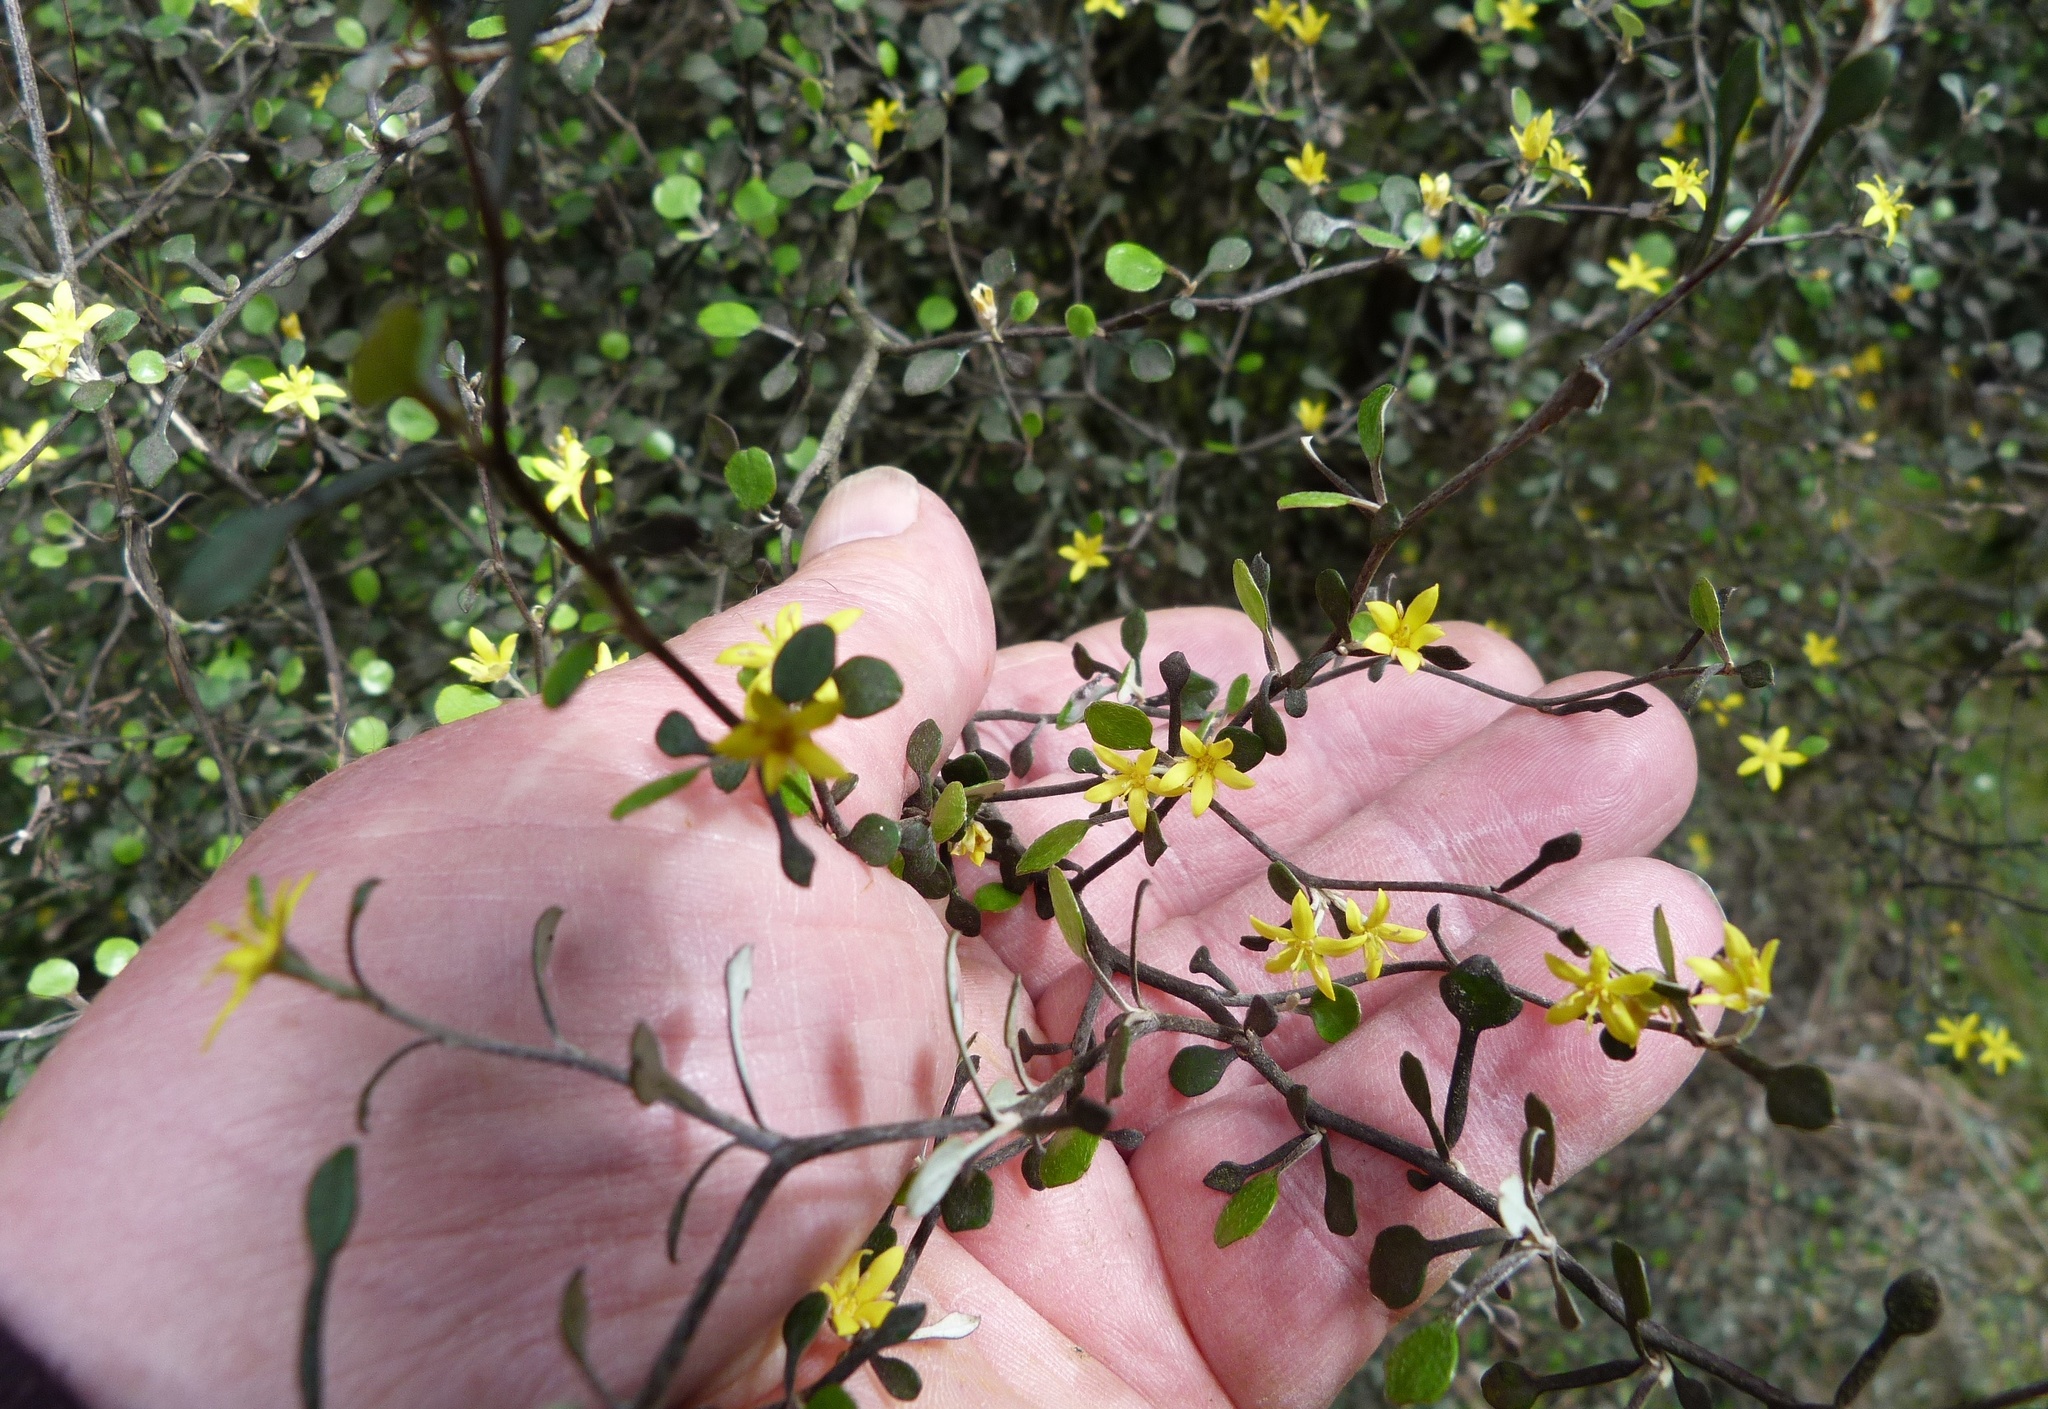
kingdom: Plantae
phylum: Tracheophyta
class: Magnoliopsida
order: Asterales
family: Argophyllaceae
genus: Corokia
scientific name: Corokia cotoneaster
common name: Wire nettingbush
